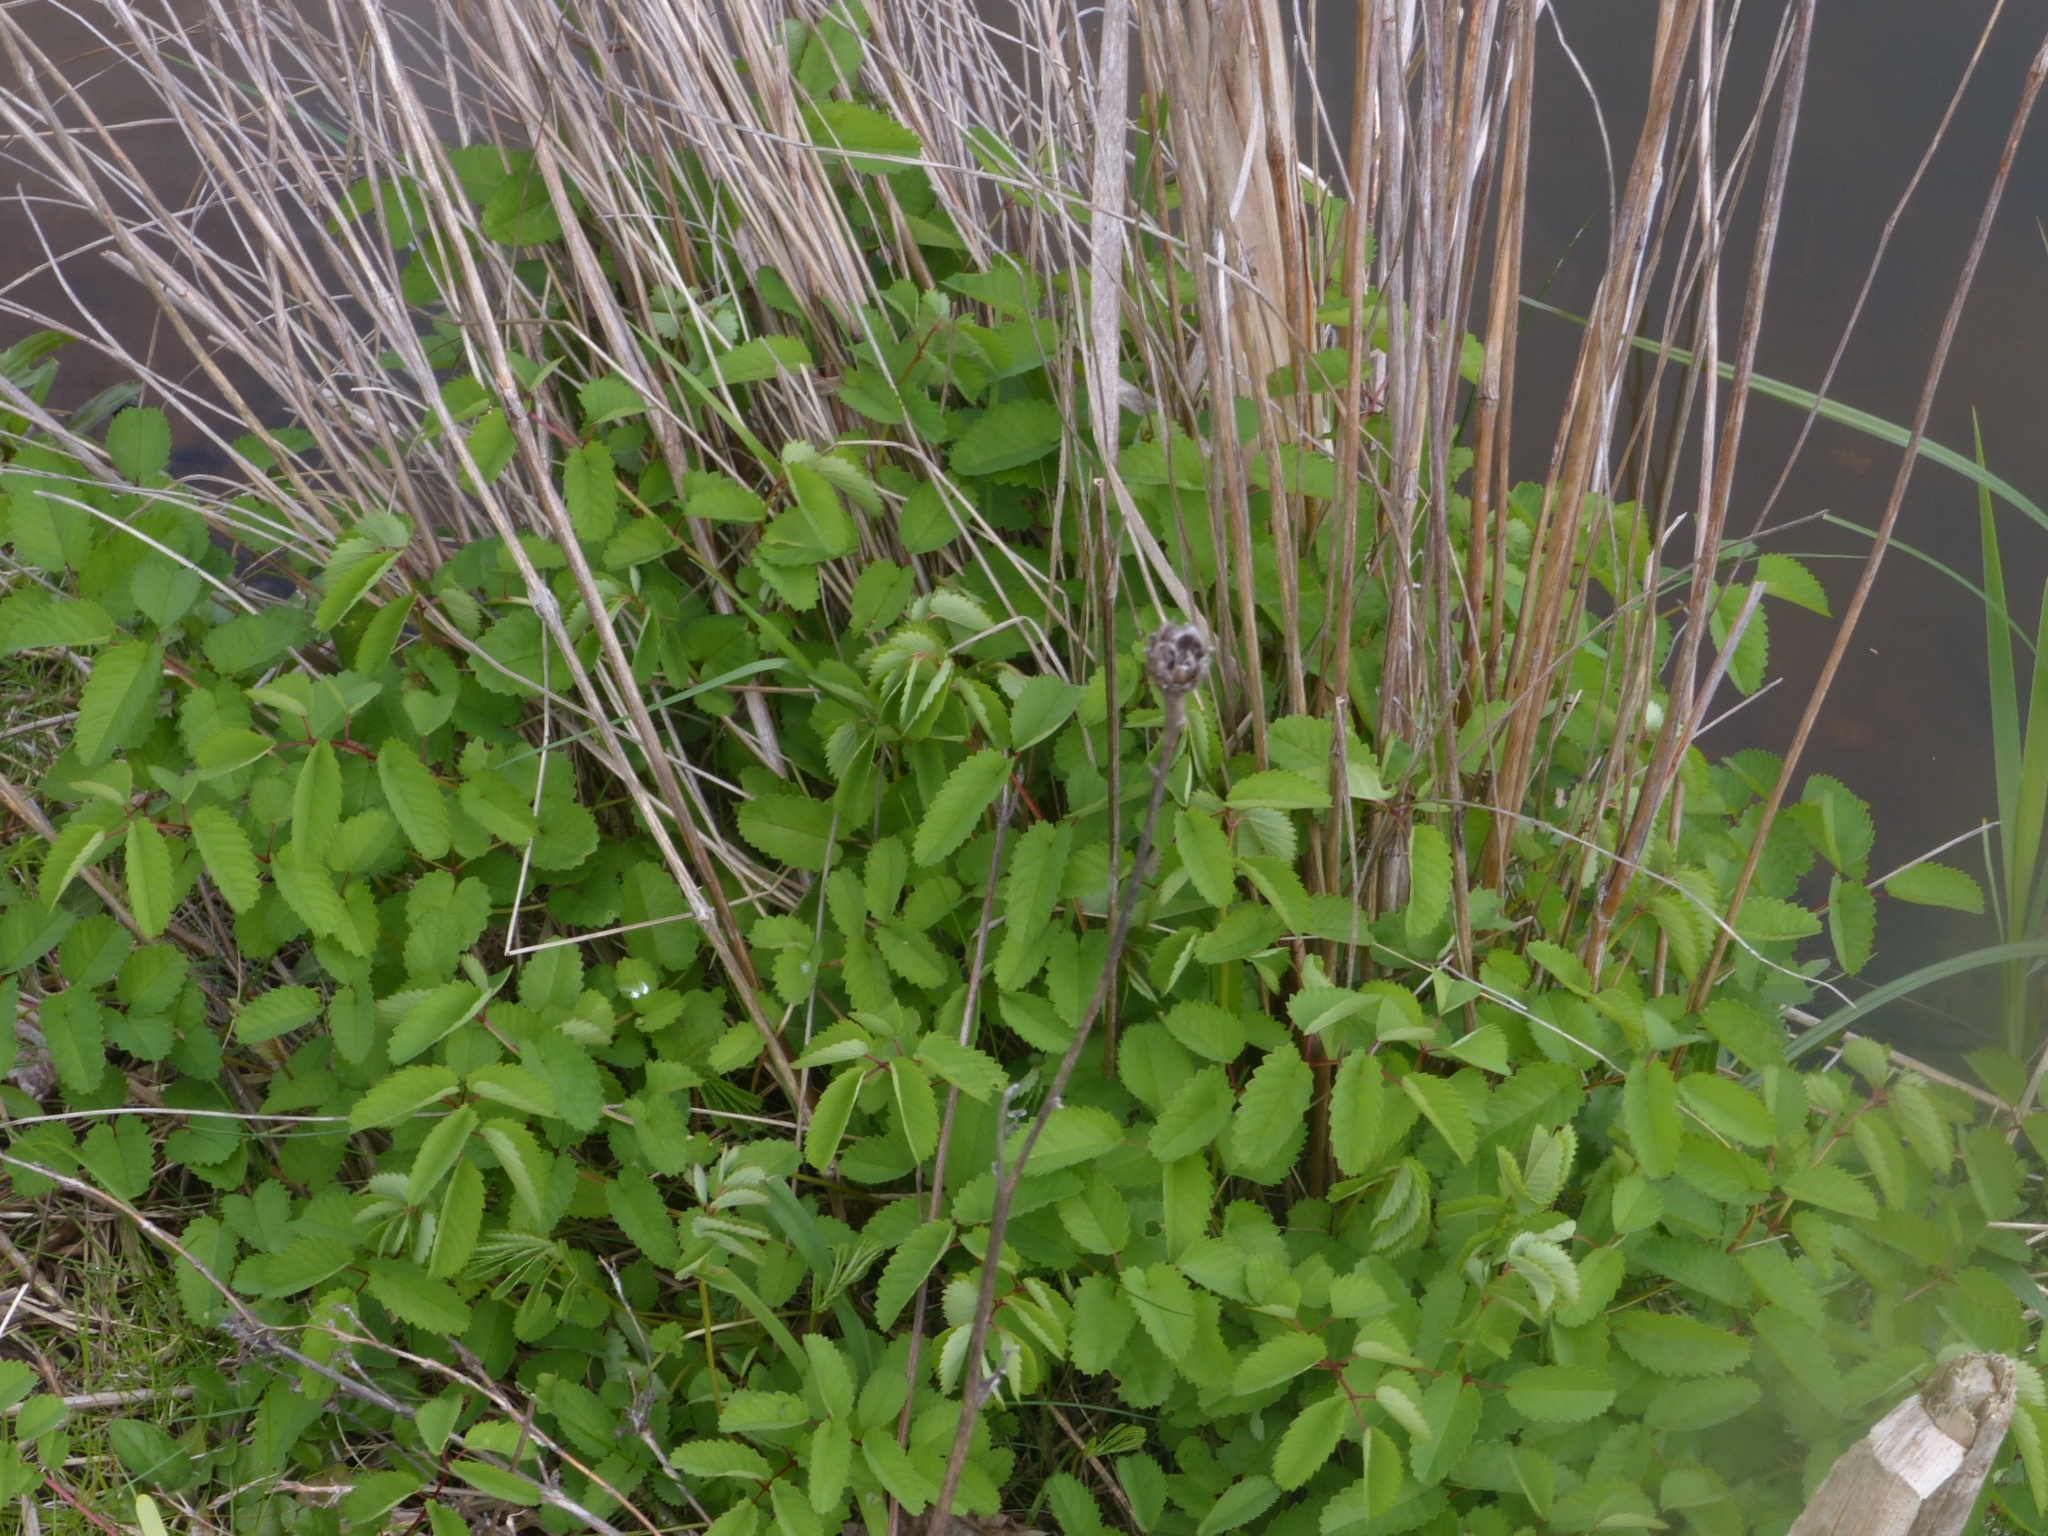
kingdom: Plantae
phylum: Tracheophyta
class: Magnoliopsida
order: Rosales
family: Rosaceae
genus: Sanguisorba
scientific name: Sanguisorba officinalis
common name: Great burnet
